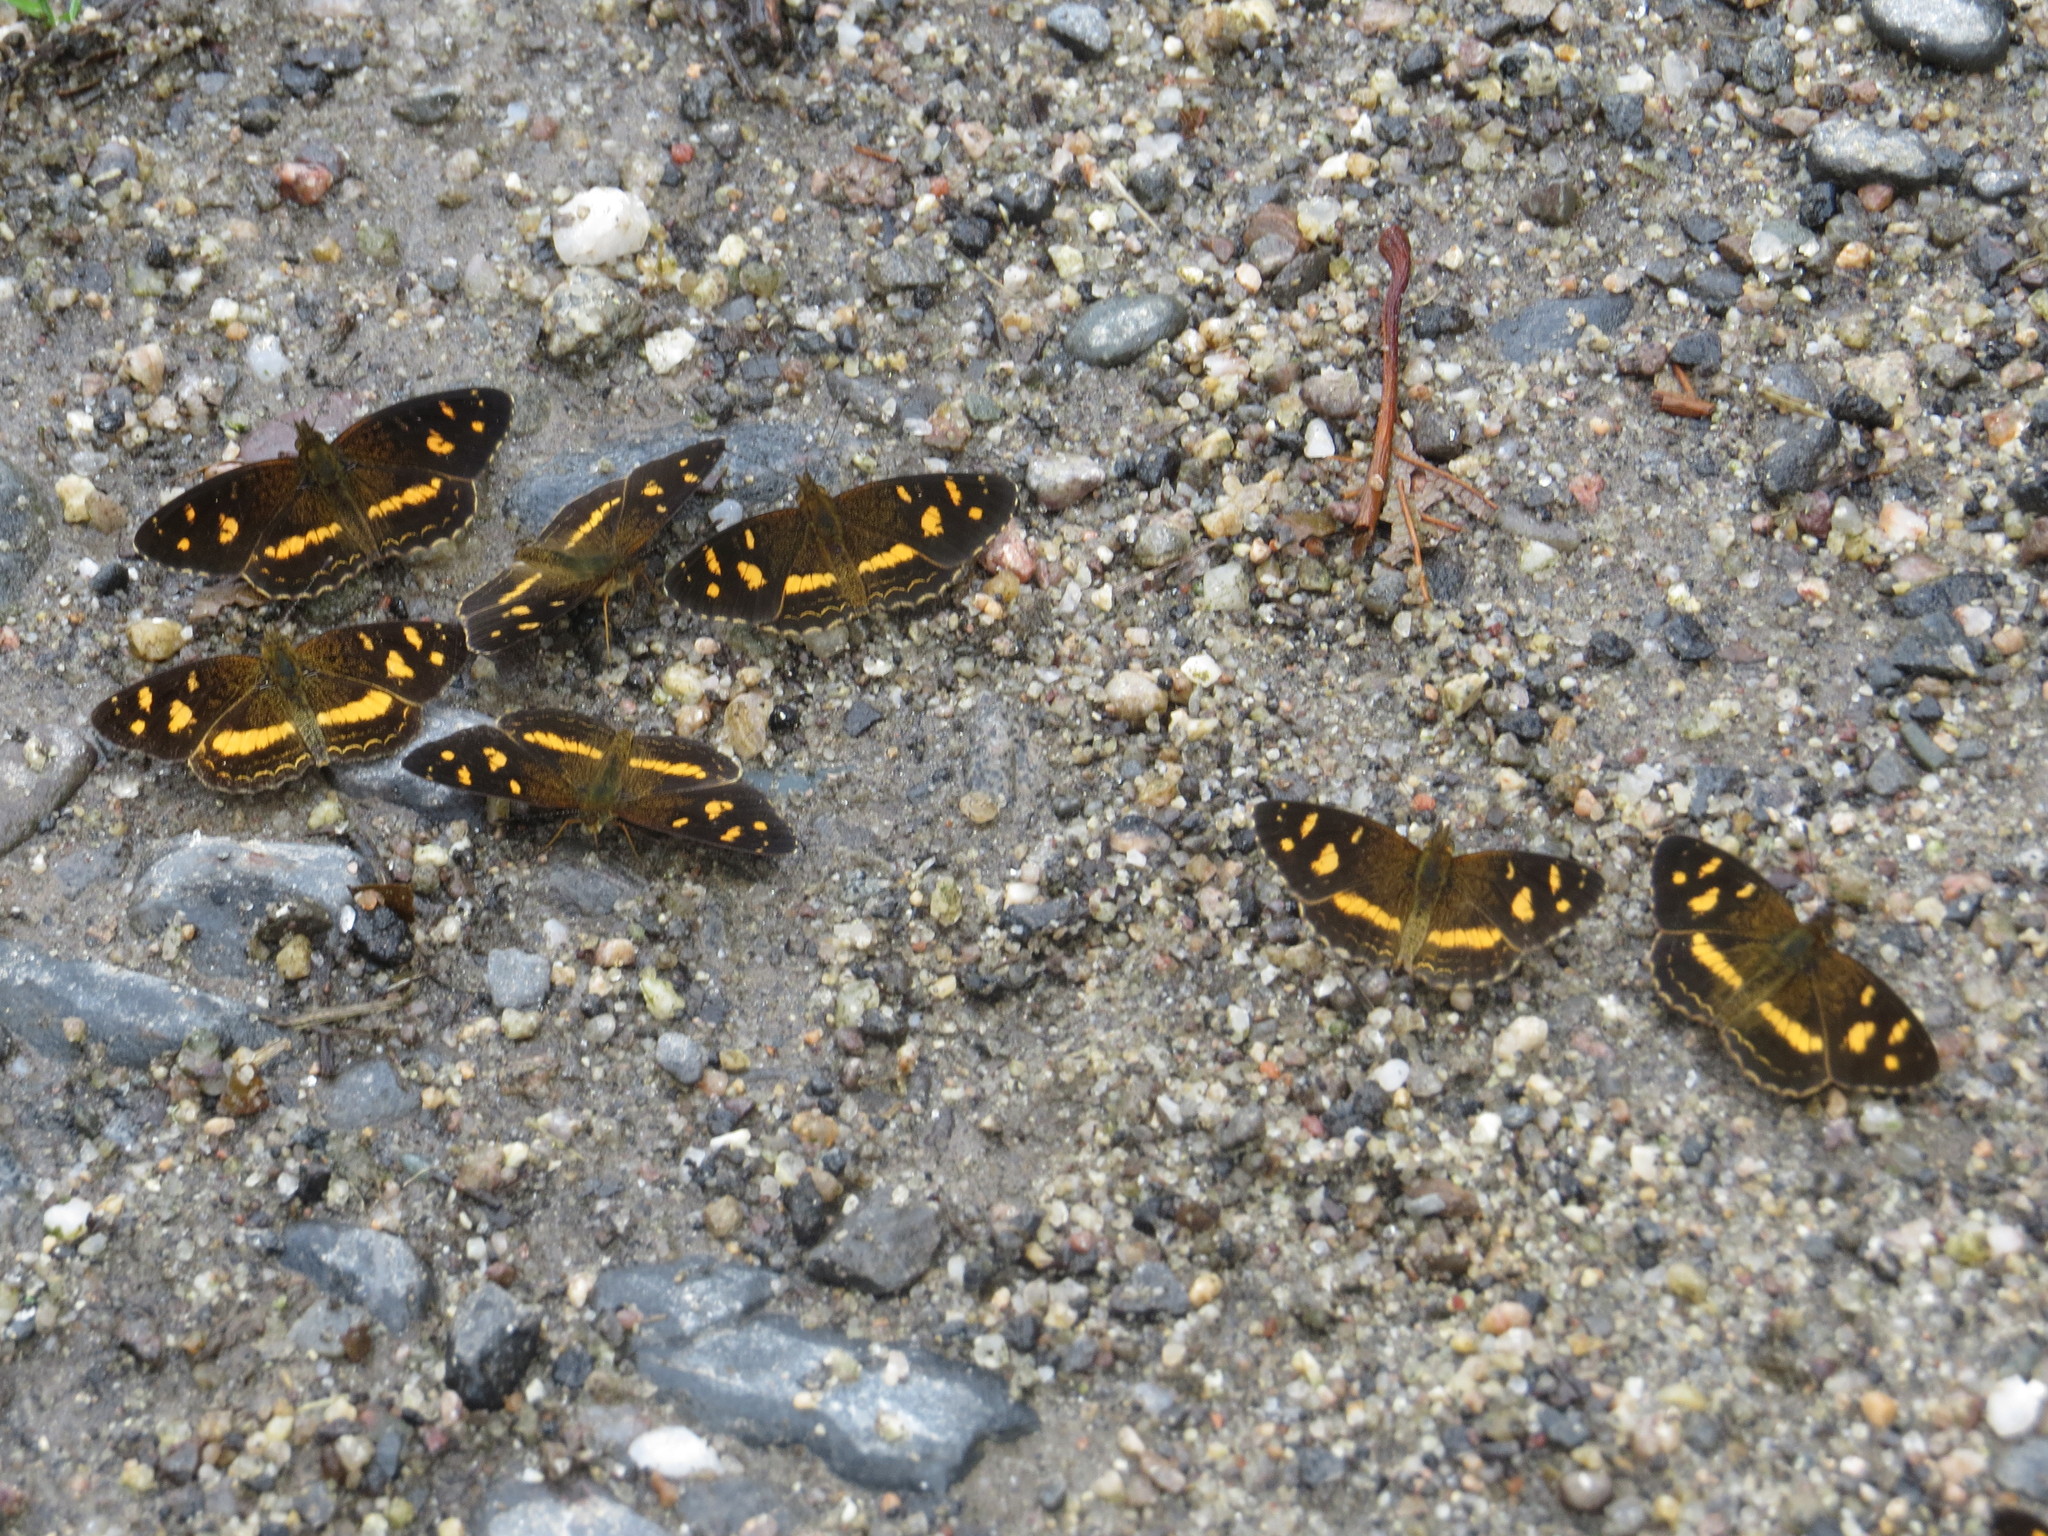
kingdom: Animalia
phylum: Arthropoda
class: Insecta
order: Lepidoptera
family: Nymphalidae
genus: Telenassa
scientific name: Telenassa berenice
